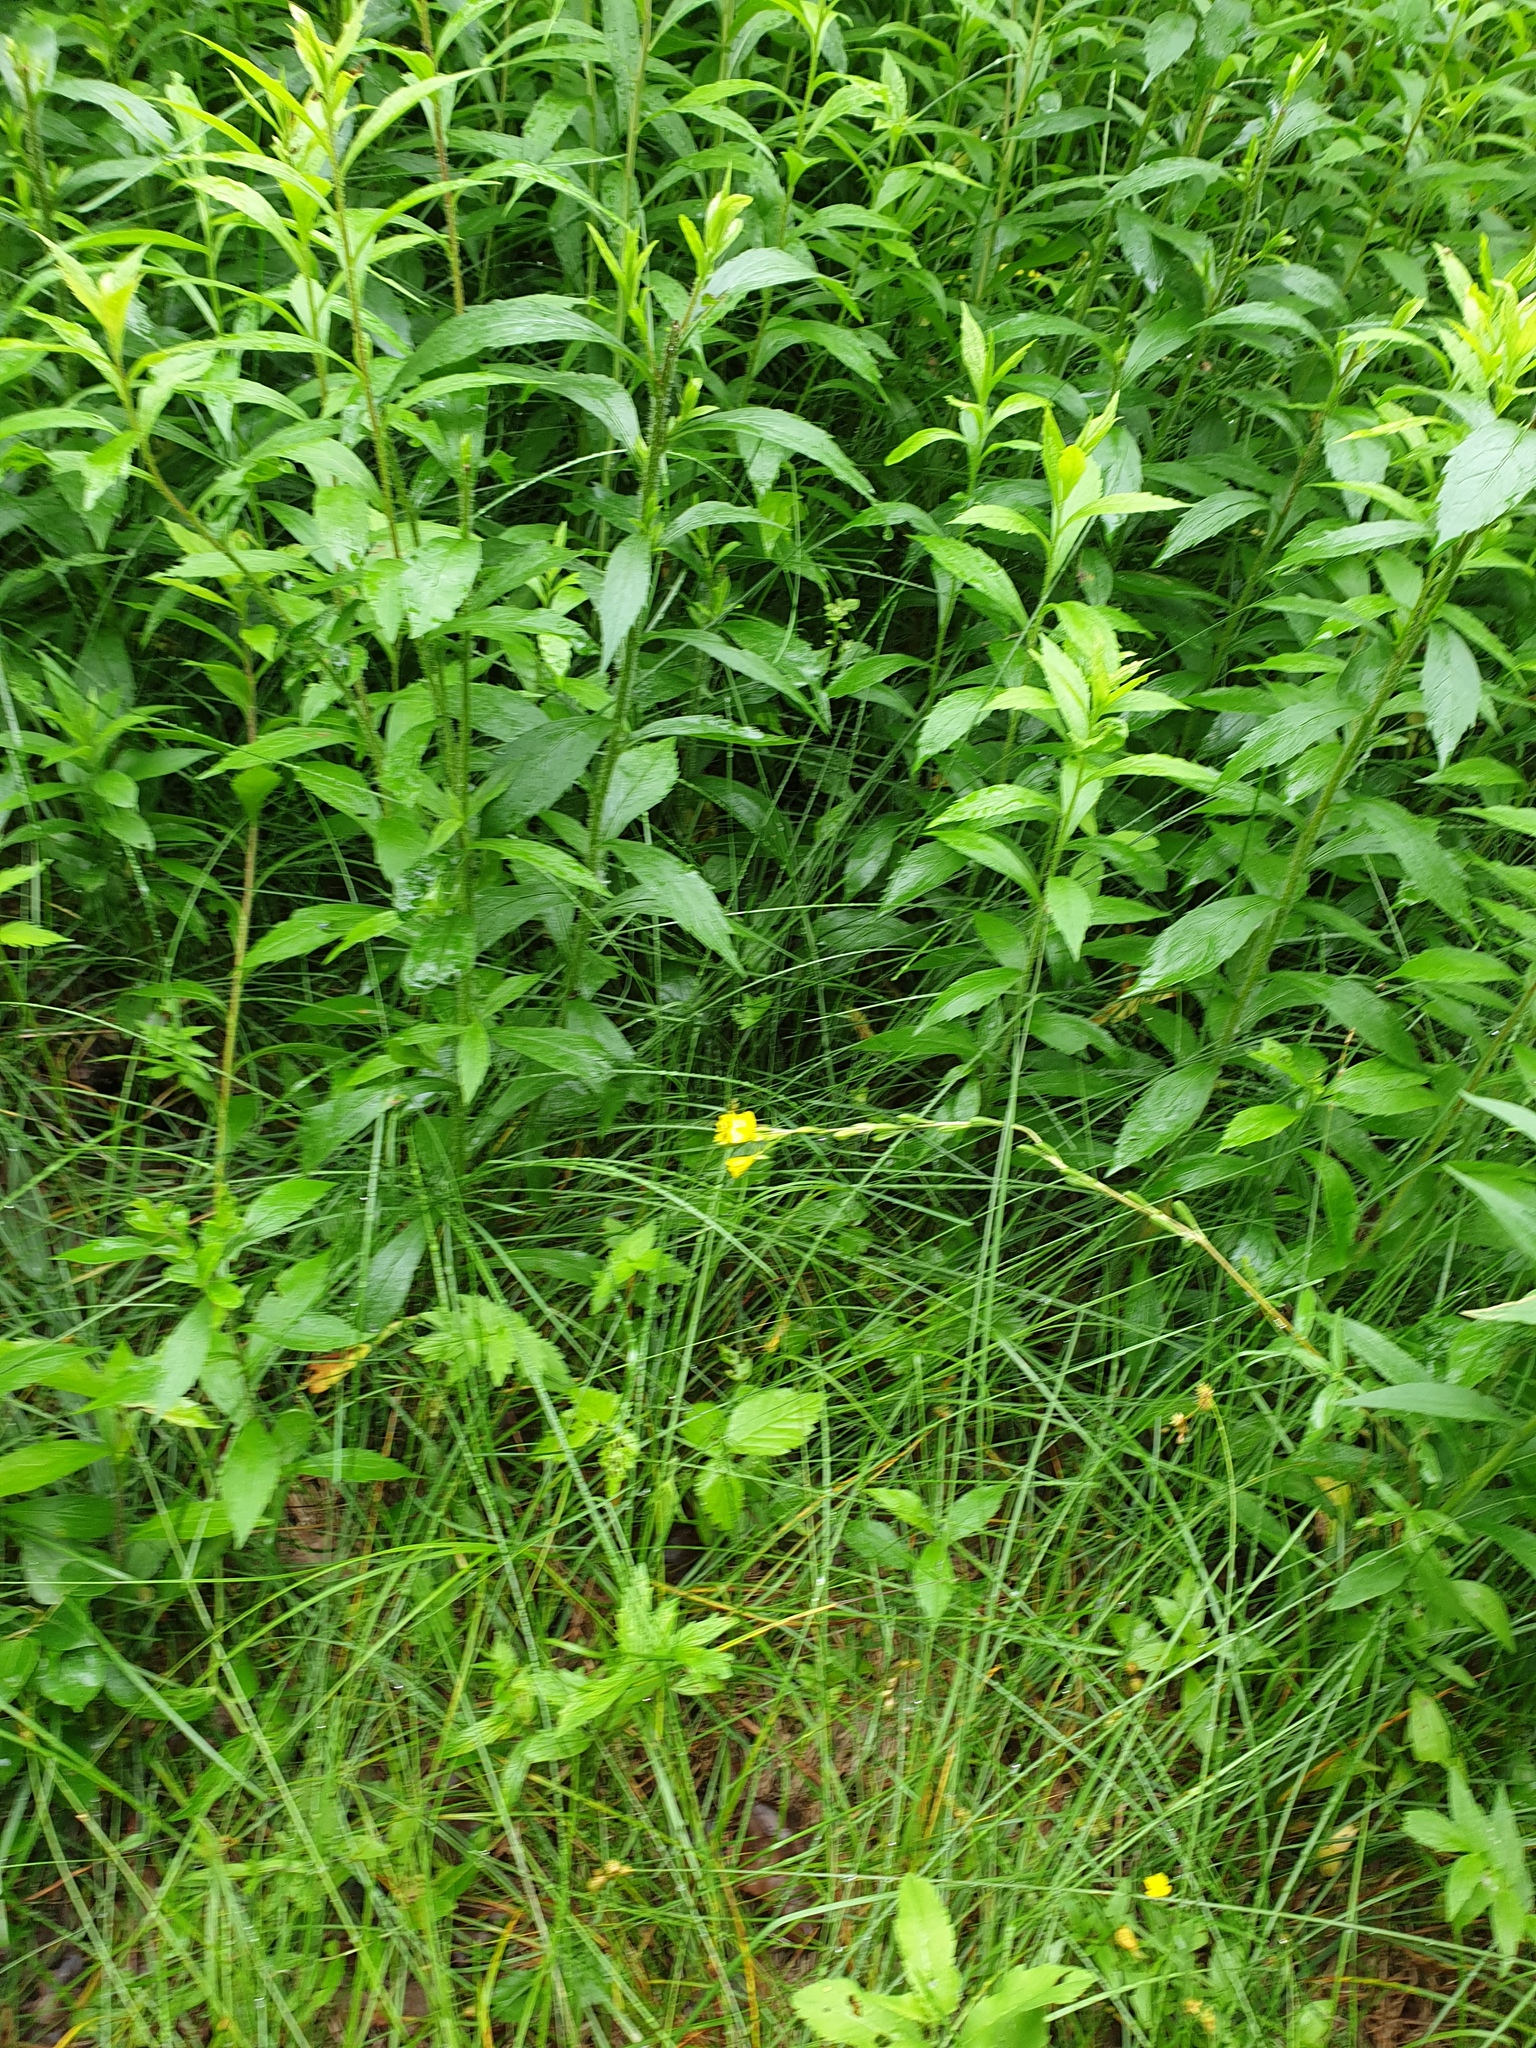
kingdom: Plantae
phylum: Tracheophyta
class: Magnoliopsida
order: Myrtales
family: Onagraceae
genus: Oenothera
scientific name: Oenothera perennis
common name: Small sundrops
